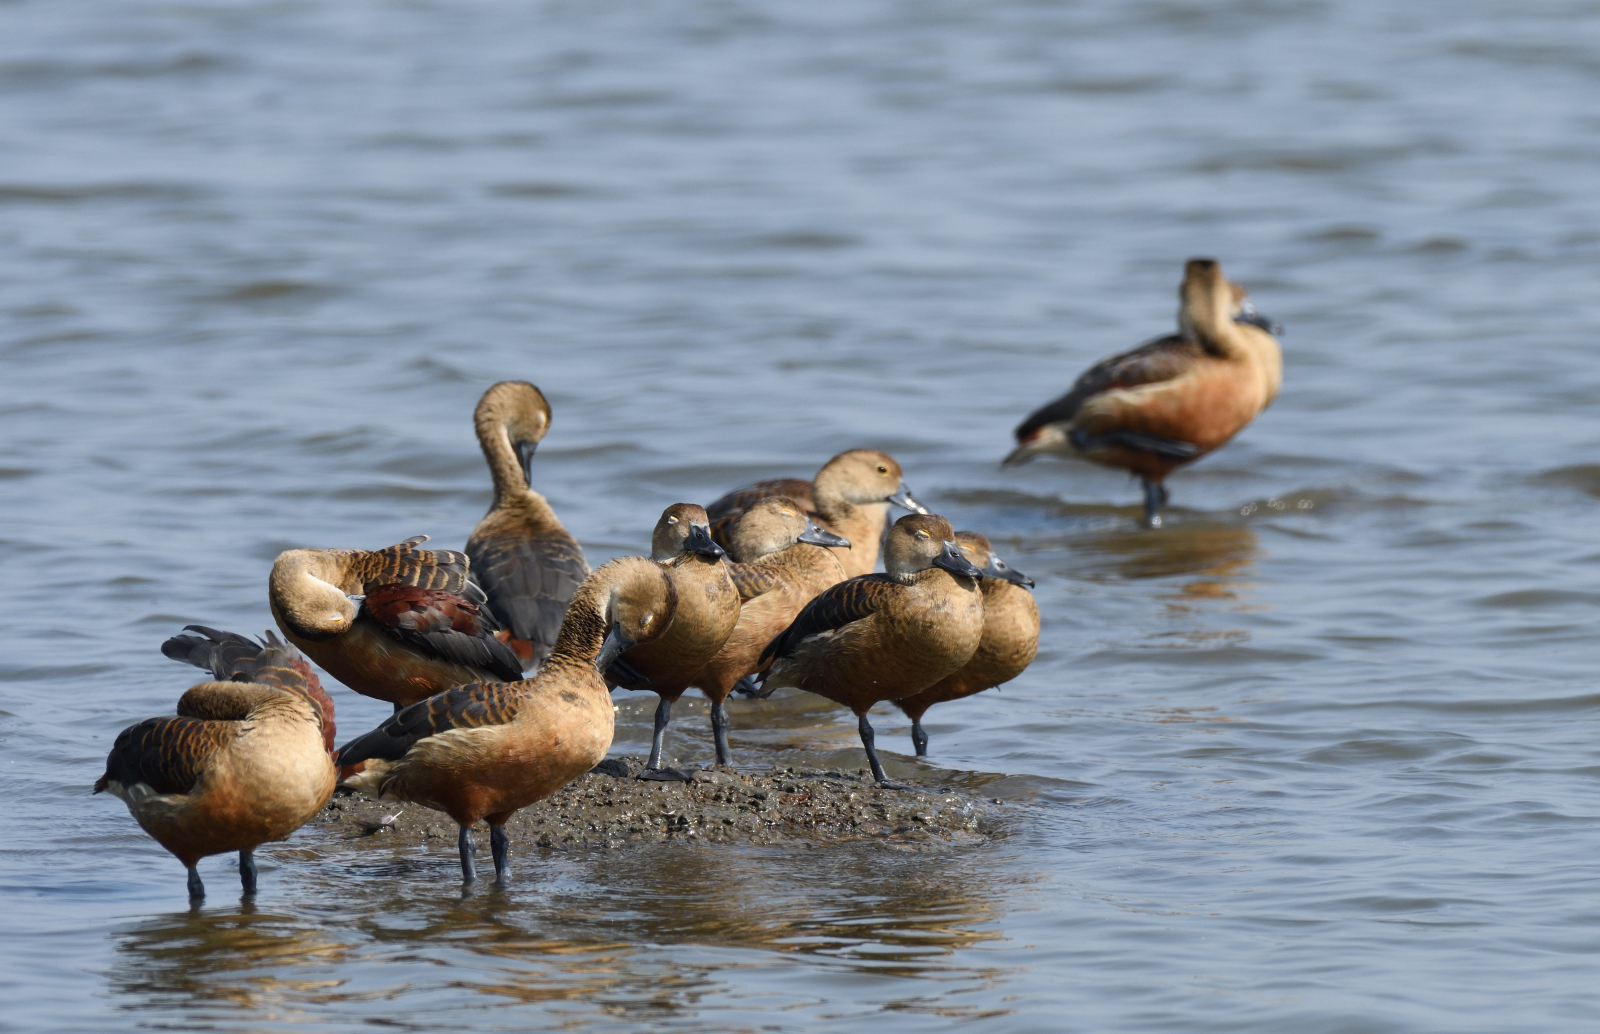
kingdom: Animalia
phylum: Chordata
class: Aves
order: Anseriformes
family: Anatidae
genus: Dendrocygna
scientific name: Dendrocygna javanica
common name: Lesser whistling-duck
